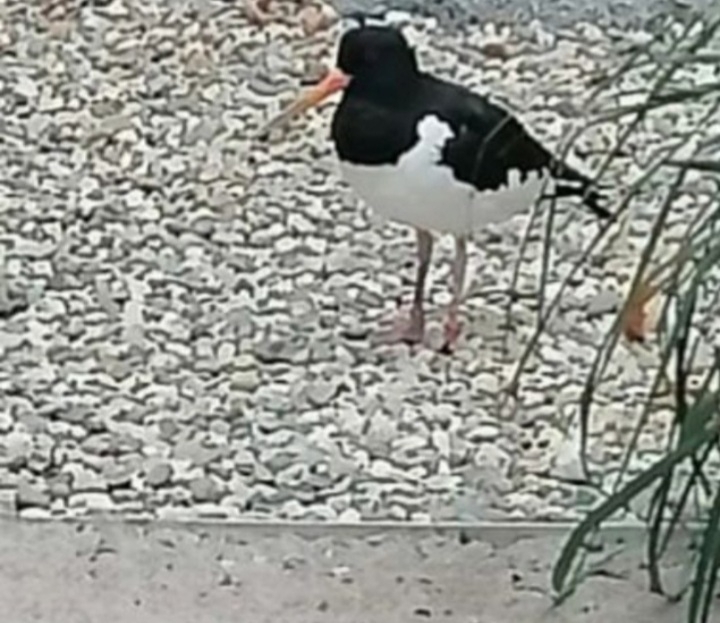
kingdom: Animalia
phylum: Chordata
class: Aves
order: Charadriiformes
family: Haematopodidae
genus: Haematopus
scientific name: Haematopus ostralegus
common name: Eurasian oystercatcher
